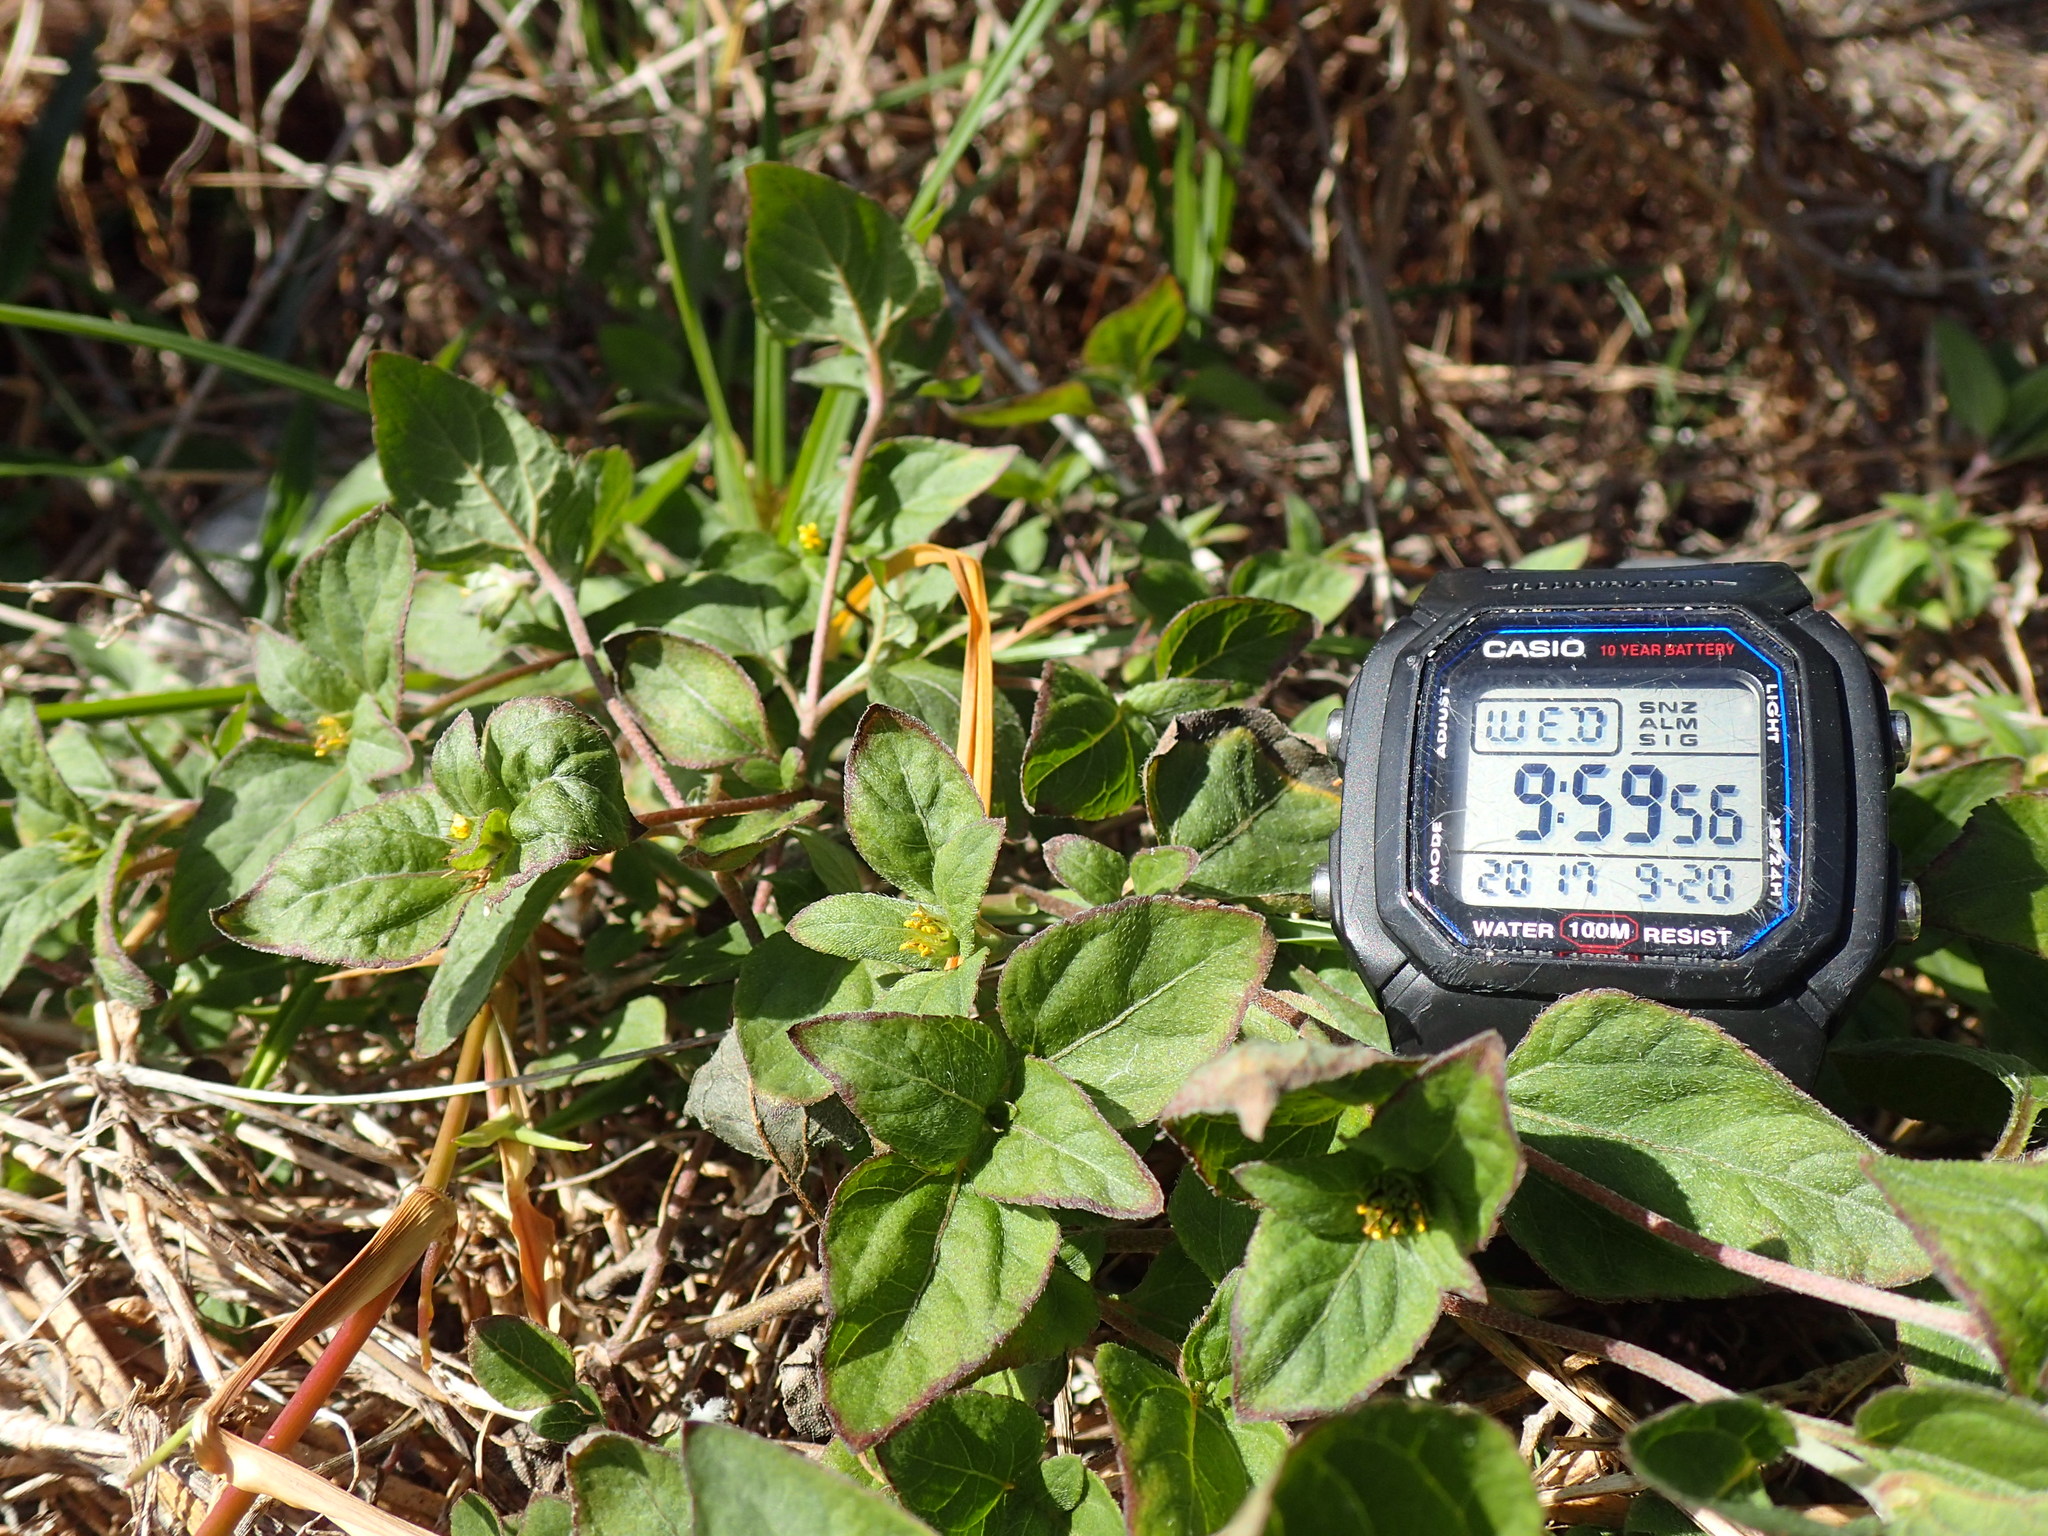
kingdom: Plantae
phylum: Tracheophyta
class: Magnoliopsida
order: Asterales
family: Asteraceae
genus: Calyptocarpus
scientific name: Calyptocarpus vialis
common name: Straggler daisy
